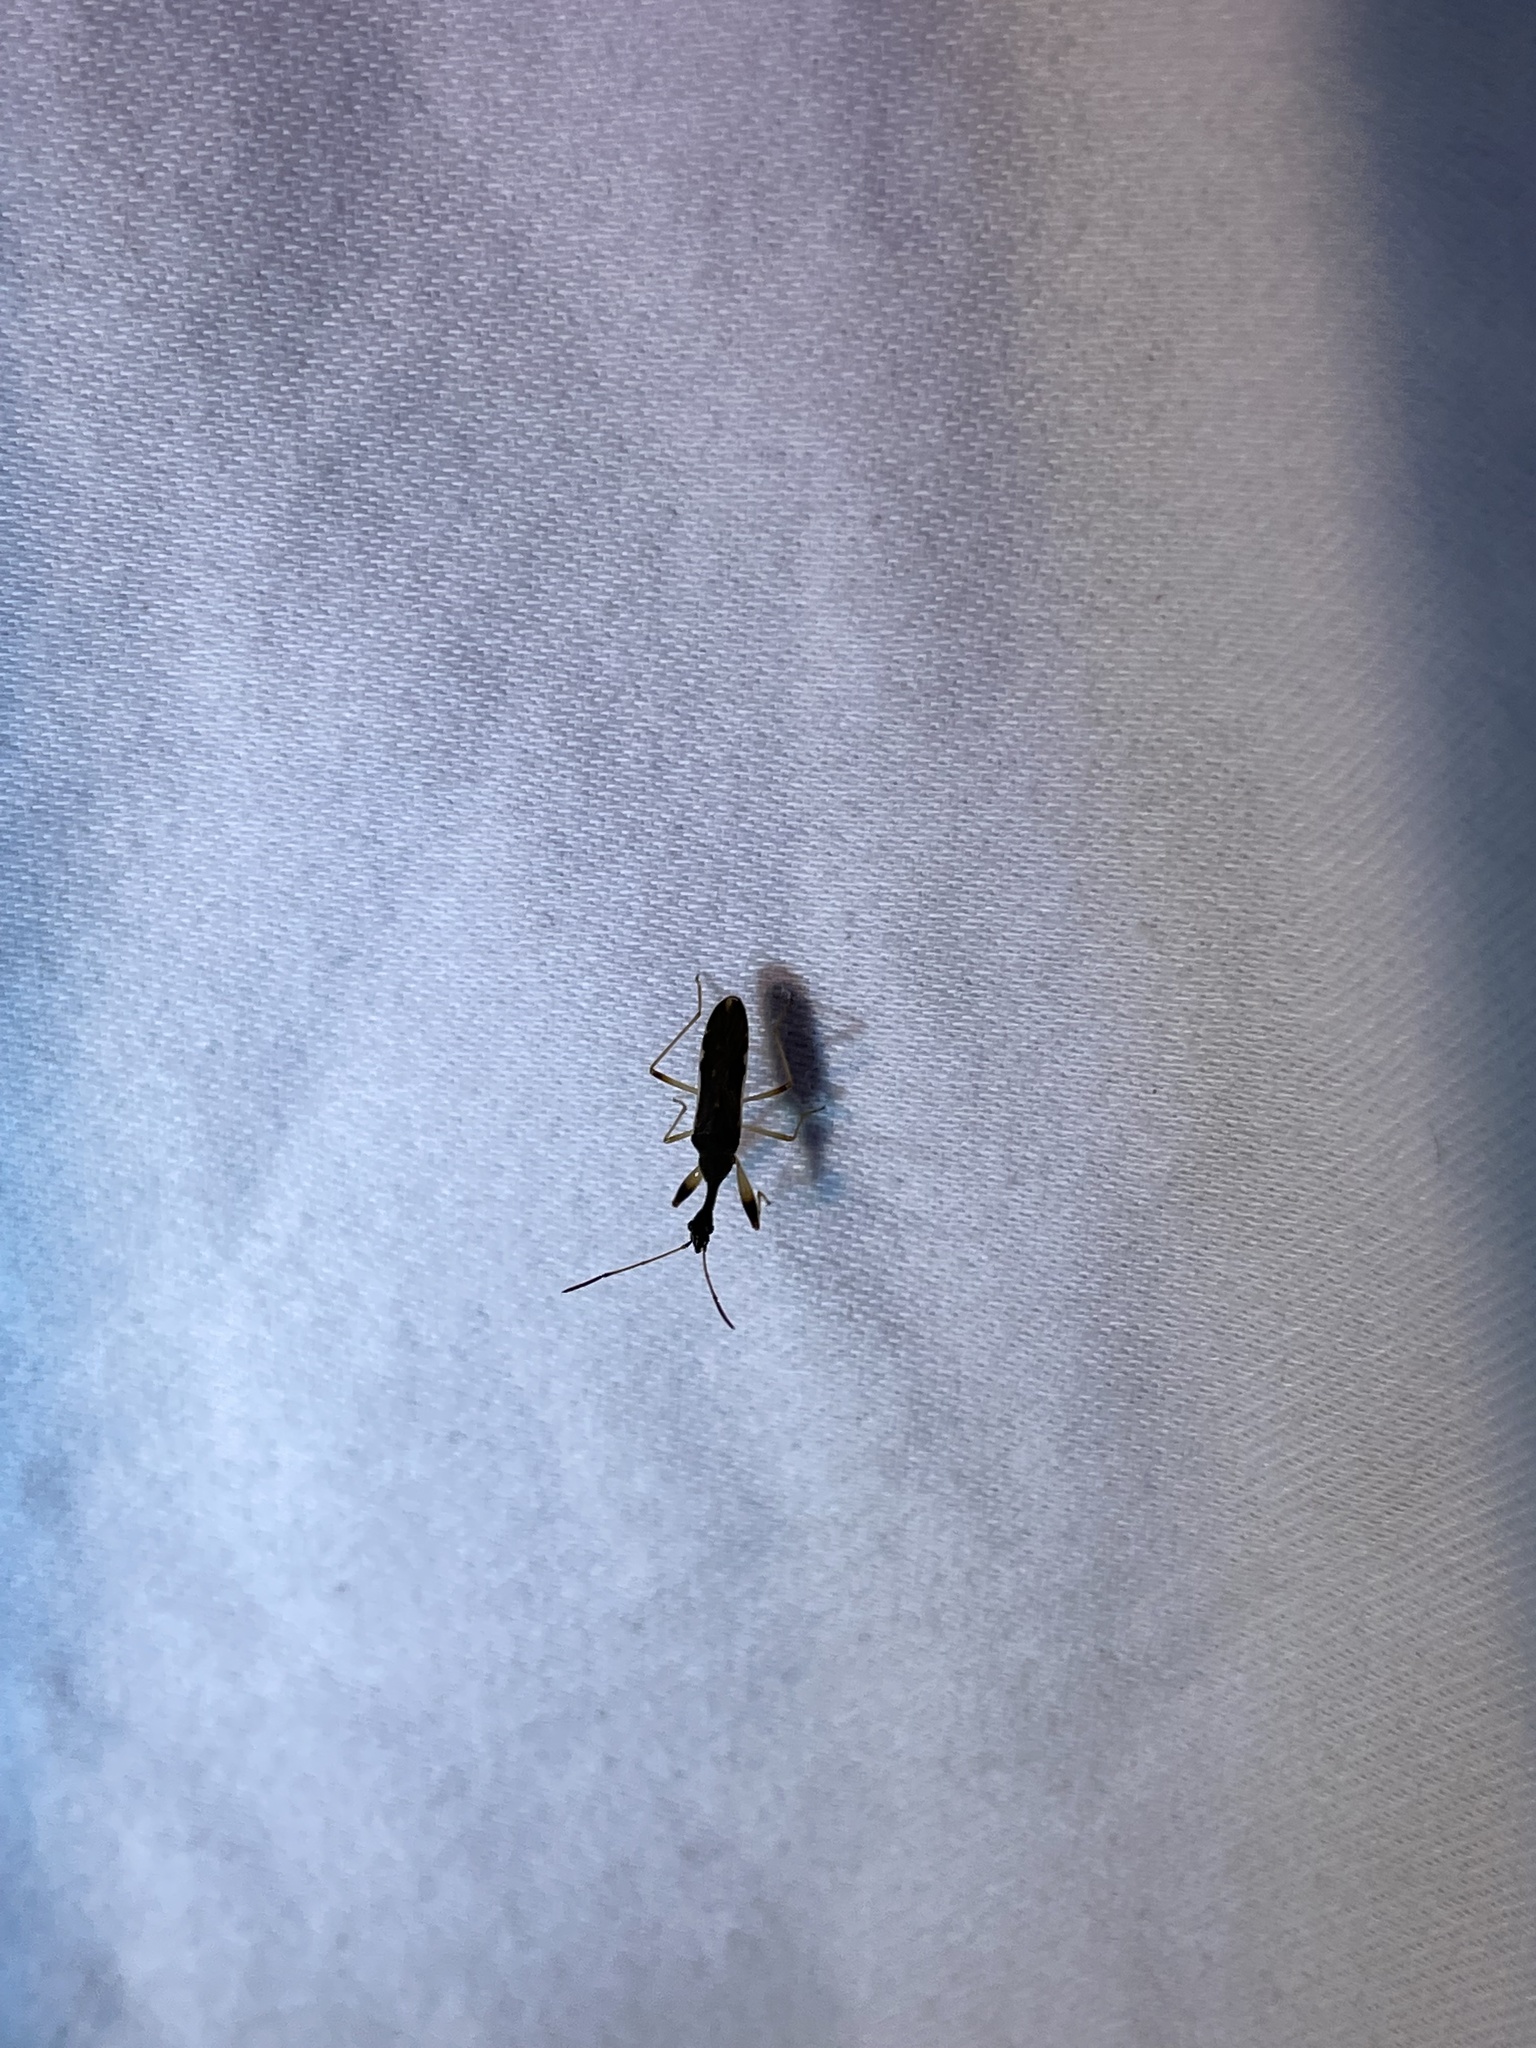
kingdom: Animalia
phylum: Arthropoda
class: Insecta
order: Hemiptera
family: Rhyparochromidae
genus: Myodocha
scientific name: Myodocha serripes
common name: Long-necked seed bug
